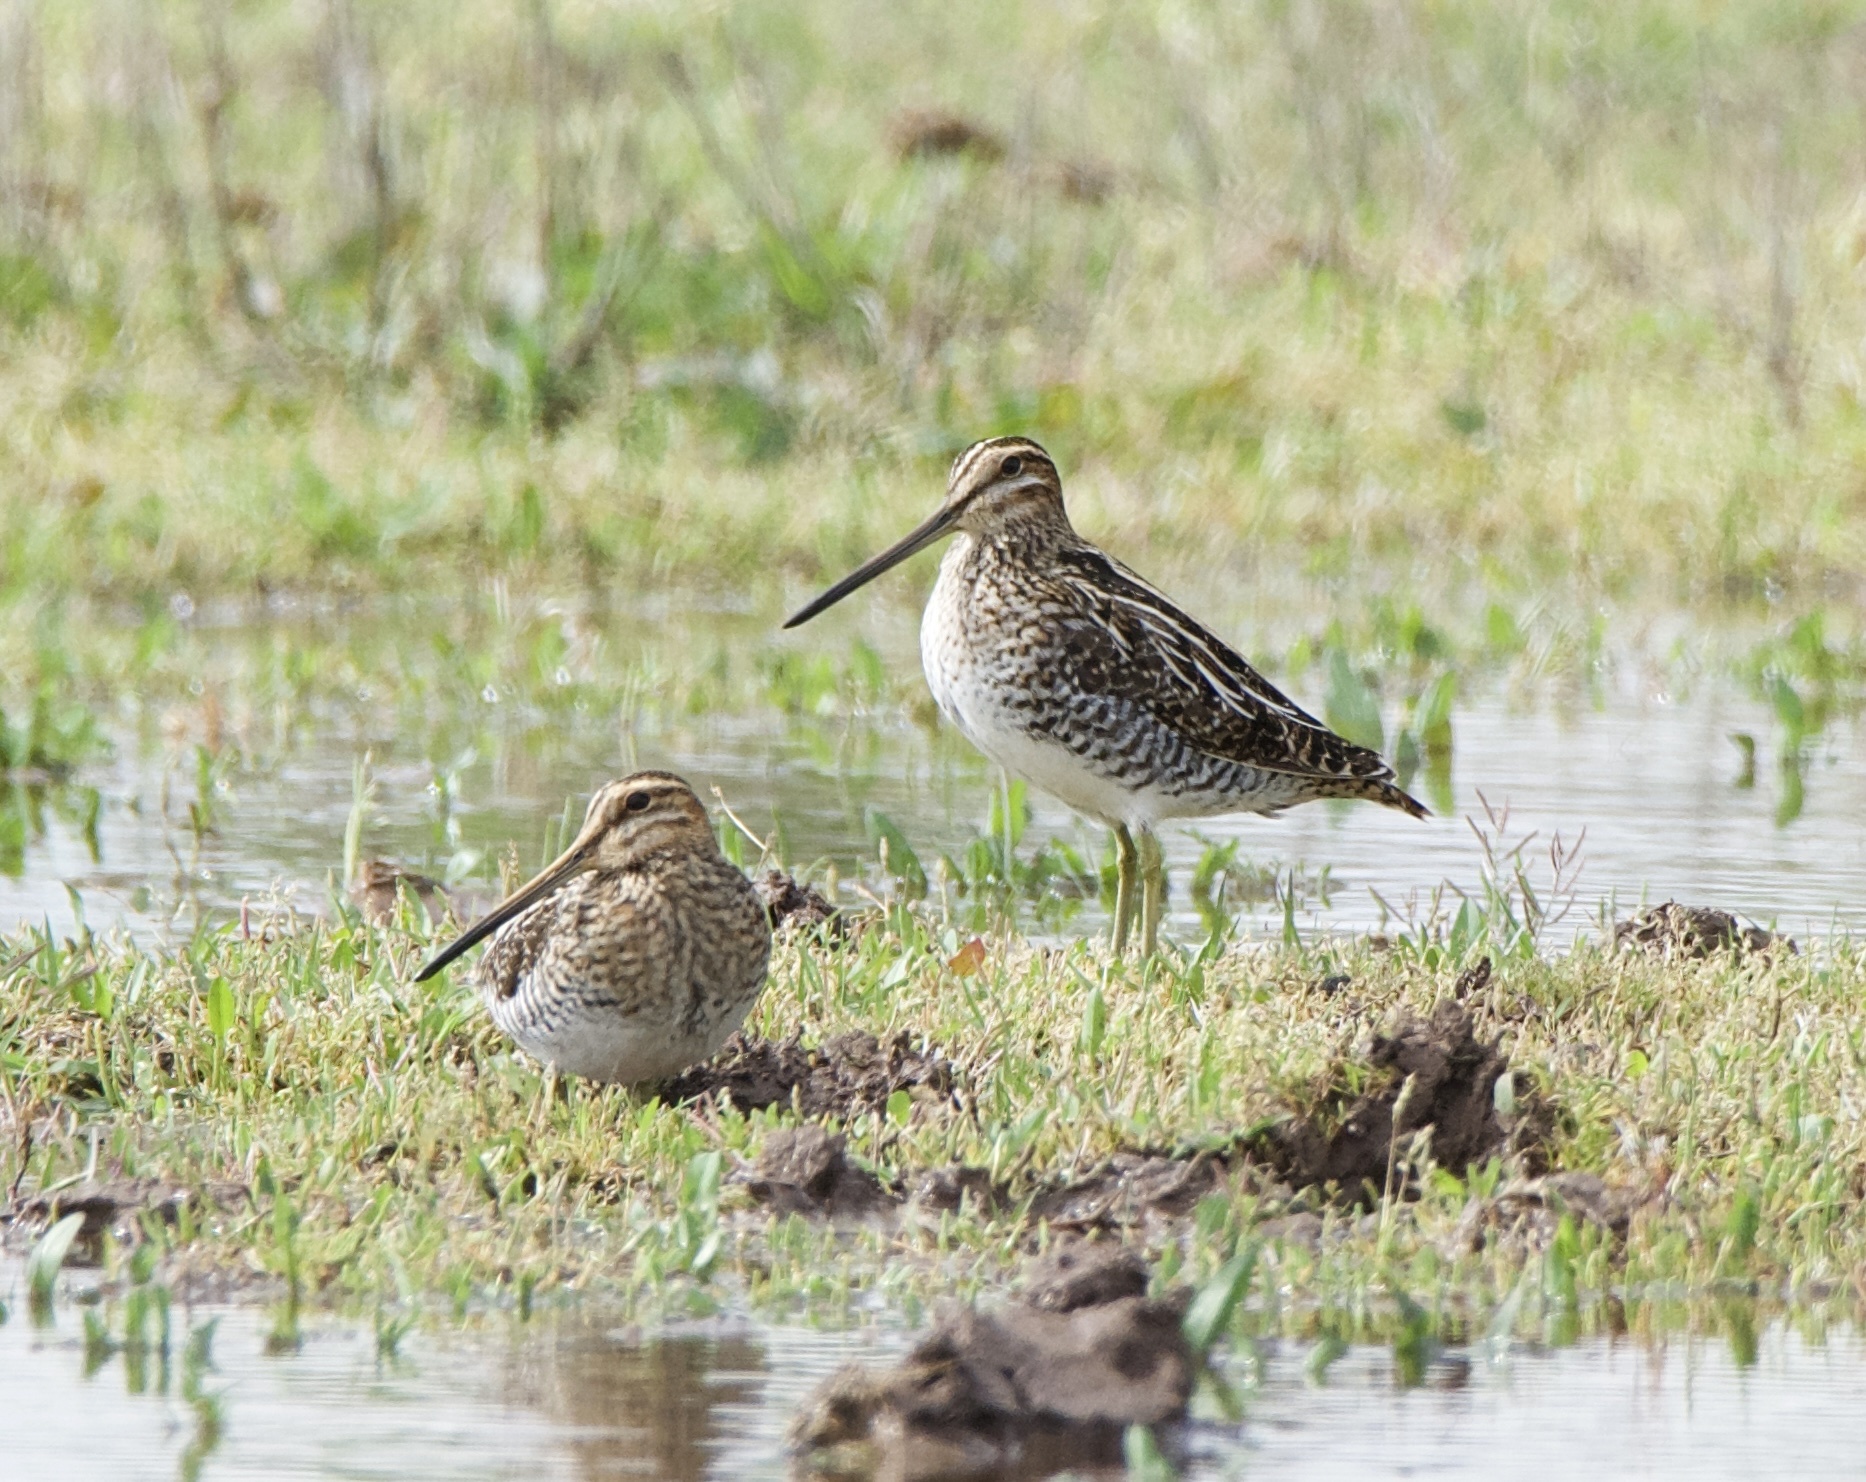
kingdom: Animalia
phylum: Chordata
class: Aves
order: Charadriiformes
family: Scolopacidae
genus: Gallinago
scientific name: Gallinago delicata
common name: Wilson's snipe
